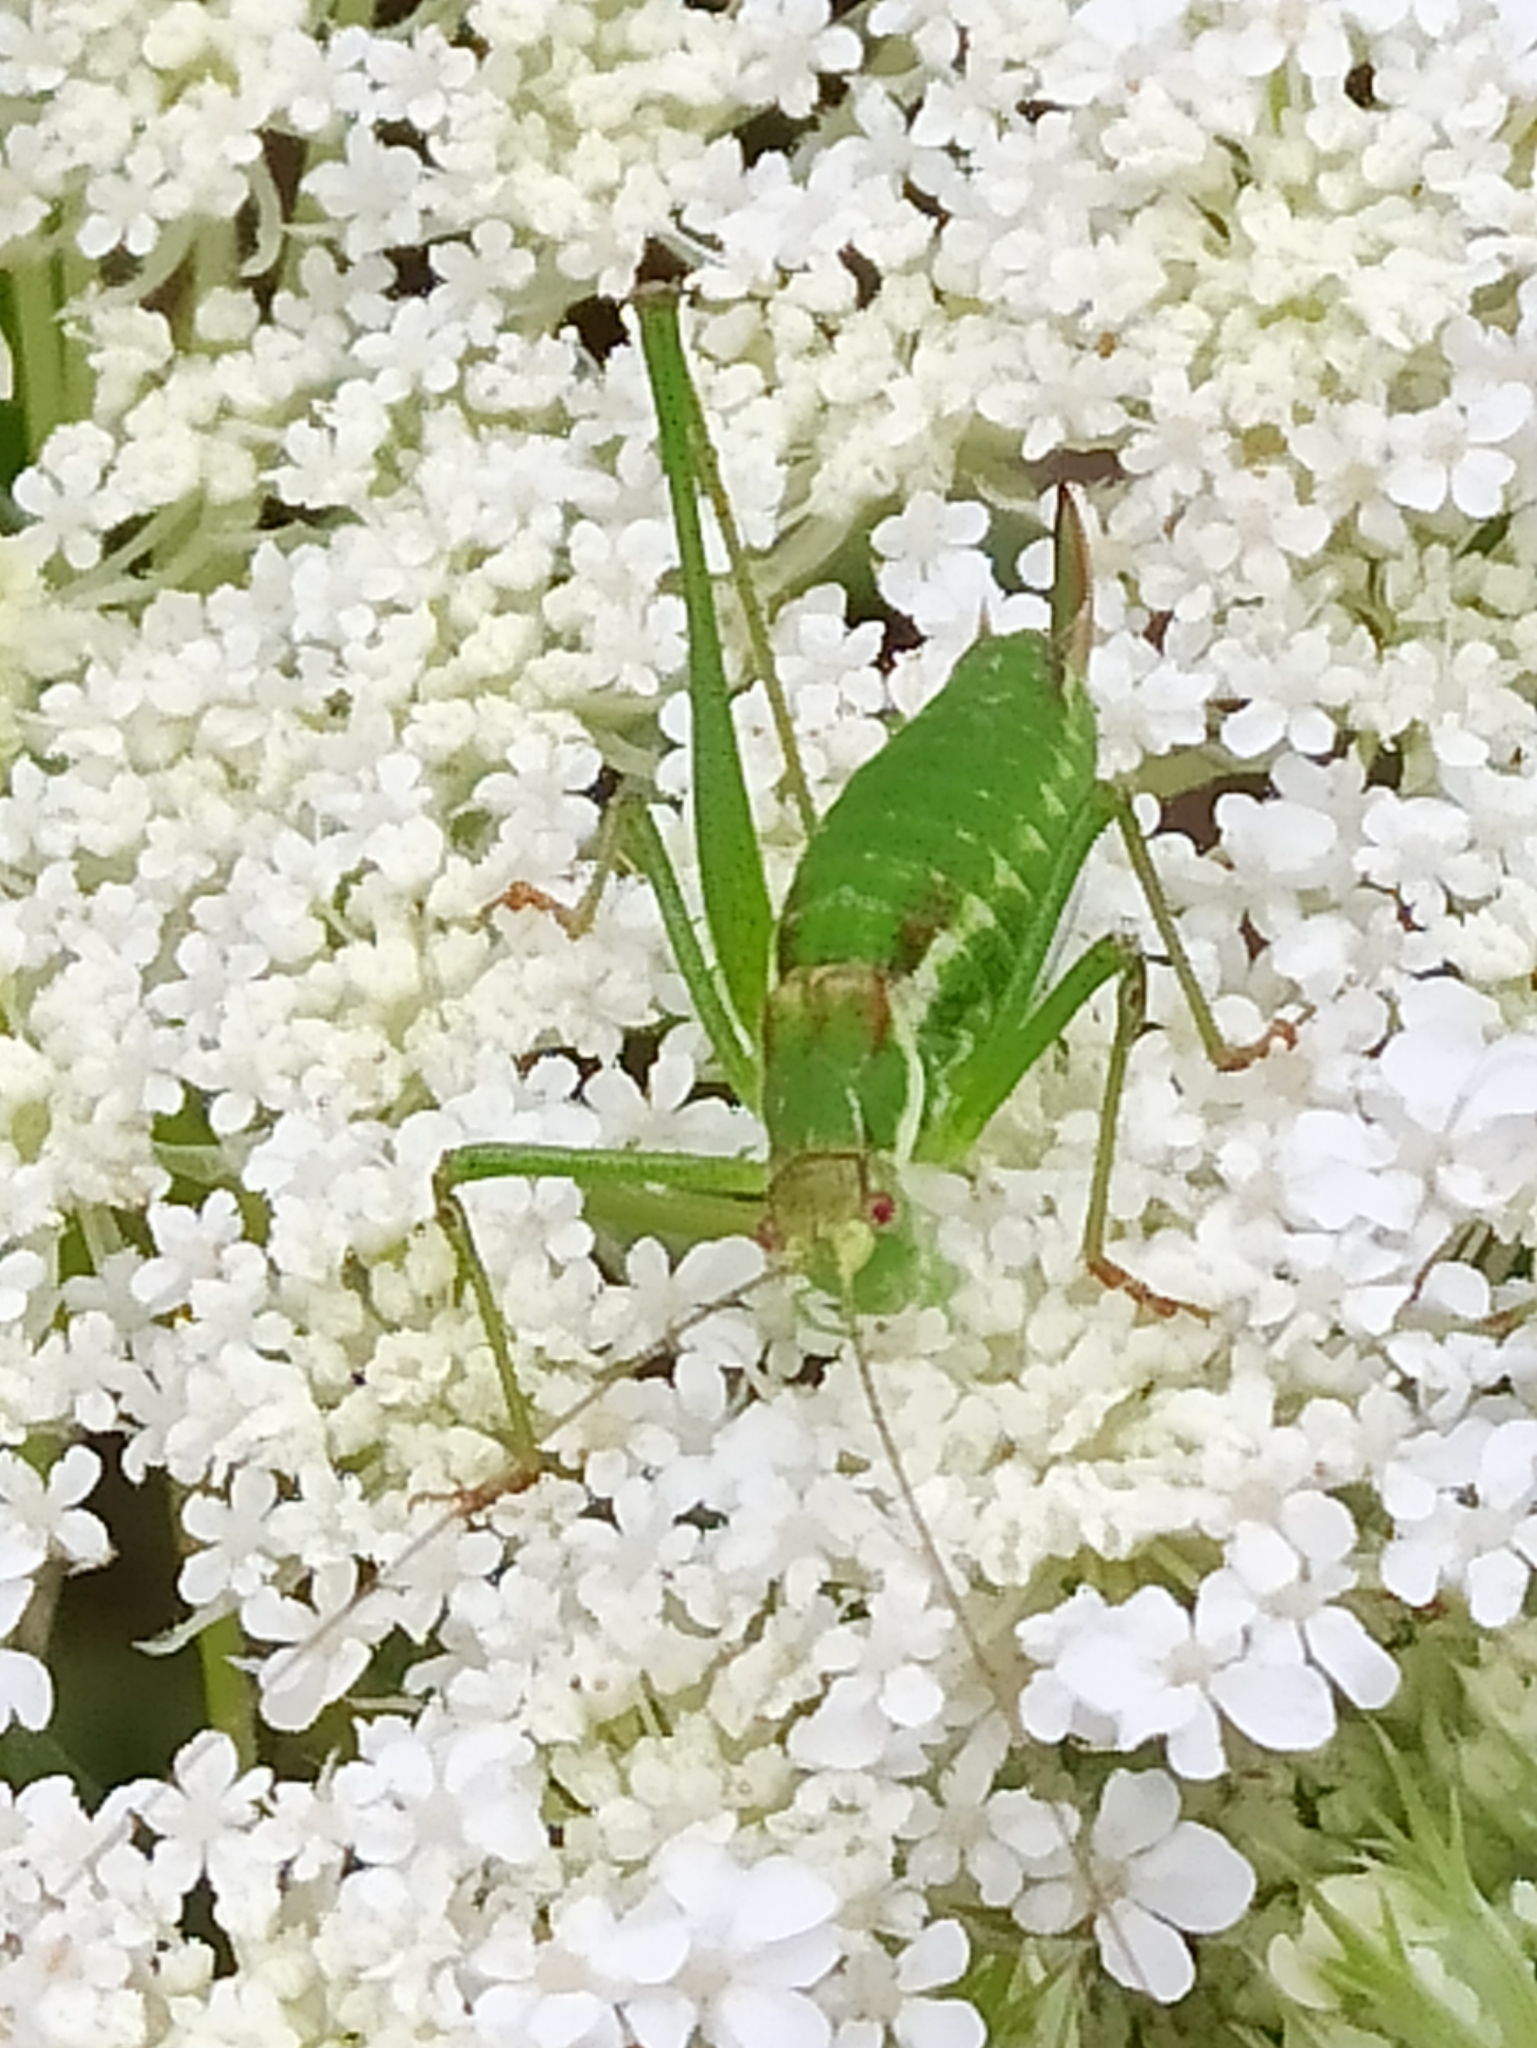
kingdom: Animalia
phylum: Arthropoda
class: Insecta
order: Orthoptera
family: Tettigoniidae
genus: Leptophyes
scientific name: Leptophyes albovittata
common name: Striped bush-cricket
